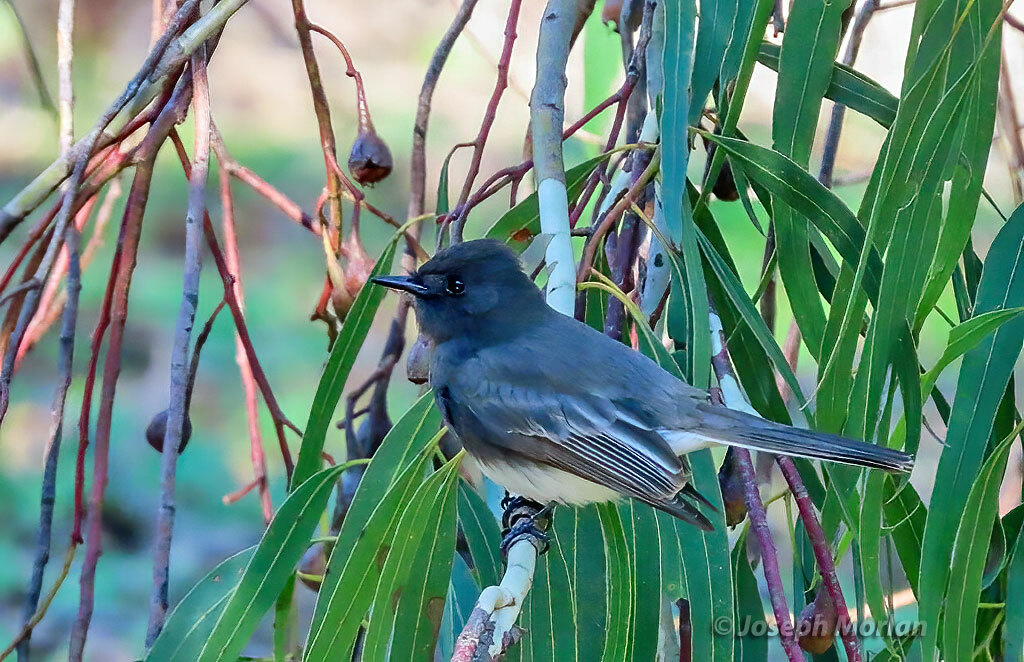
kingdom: Animalia
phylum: Chordata
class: Aves
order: Passeriformes
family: Tyrannidae
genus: Sayornis
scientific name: Sayornis nigricans
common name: Black phoebe
